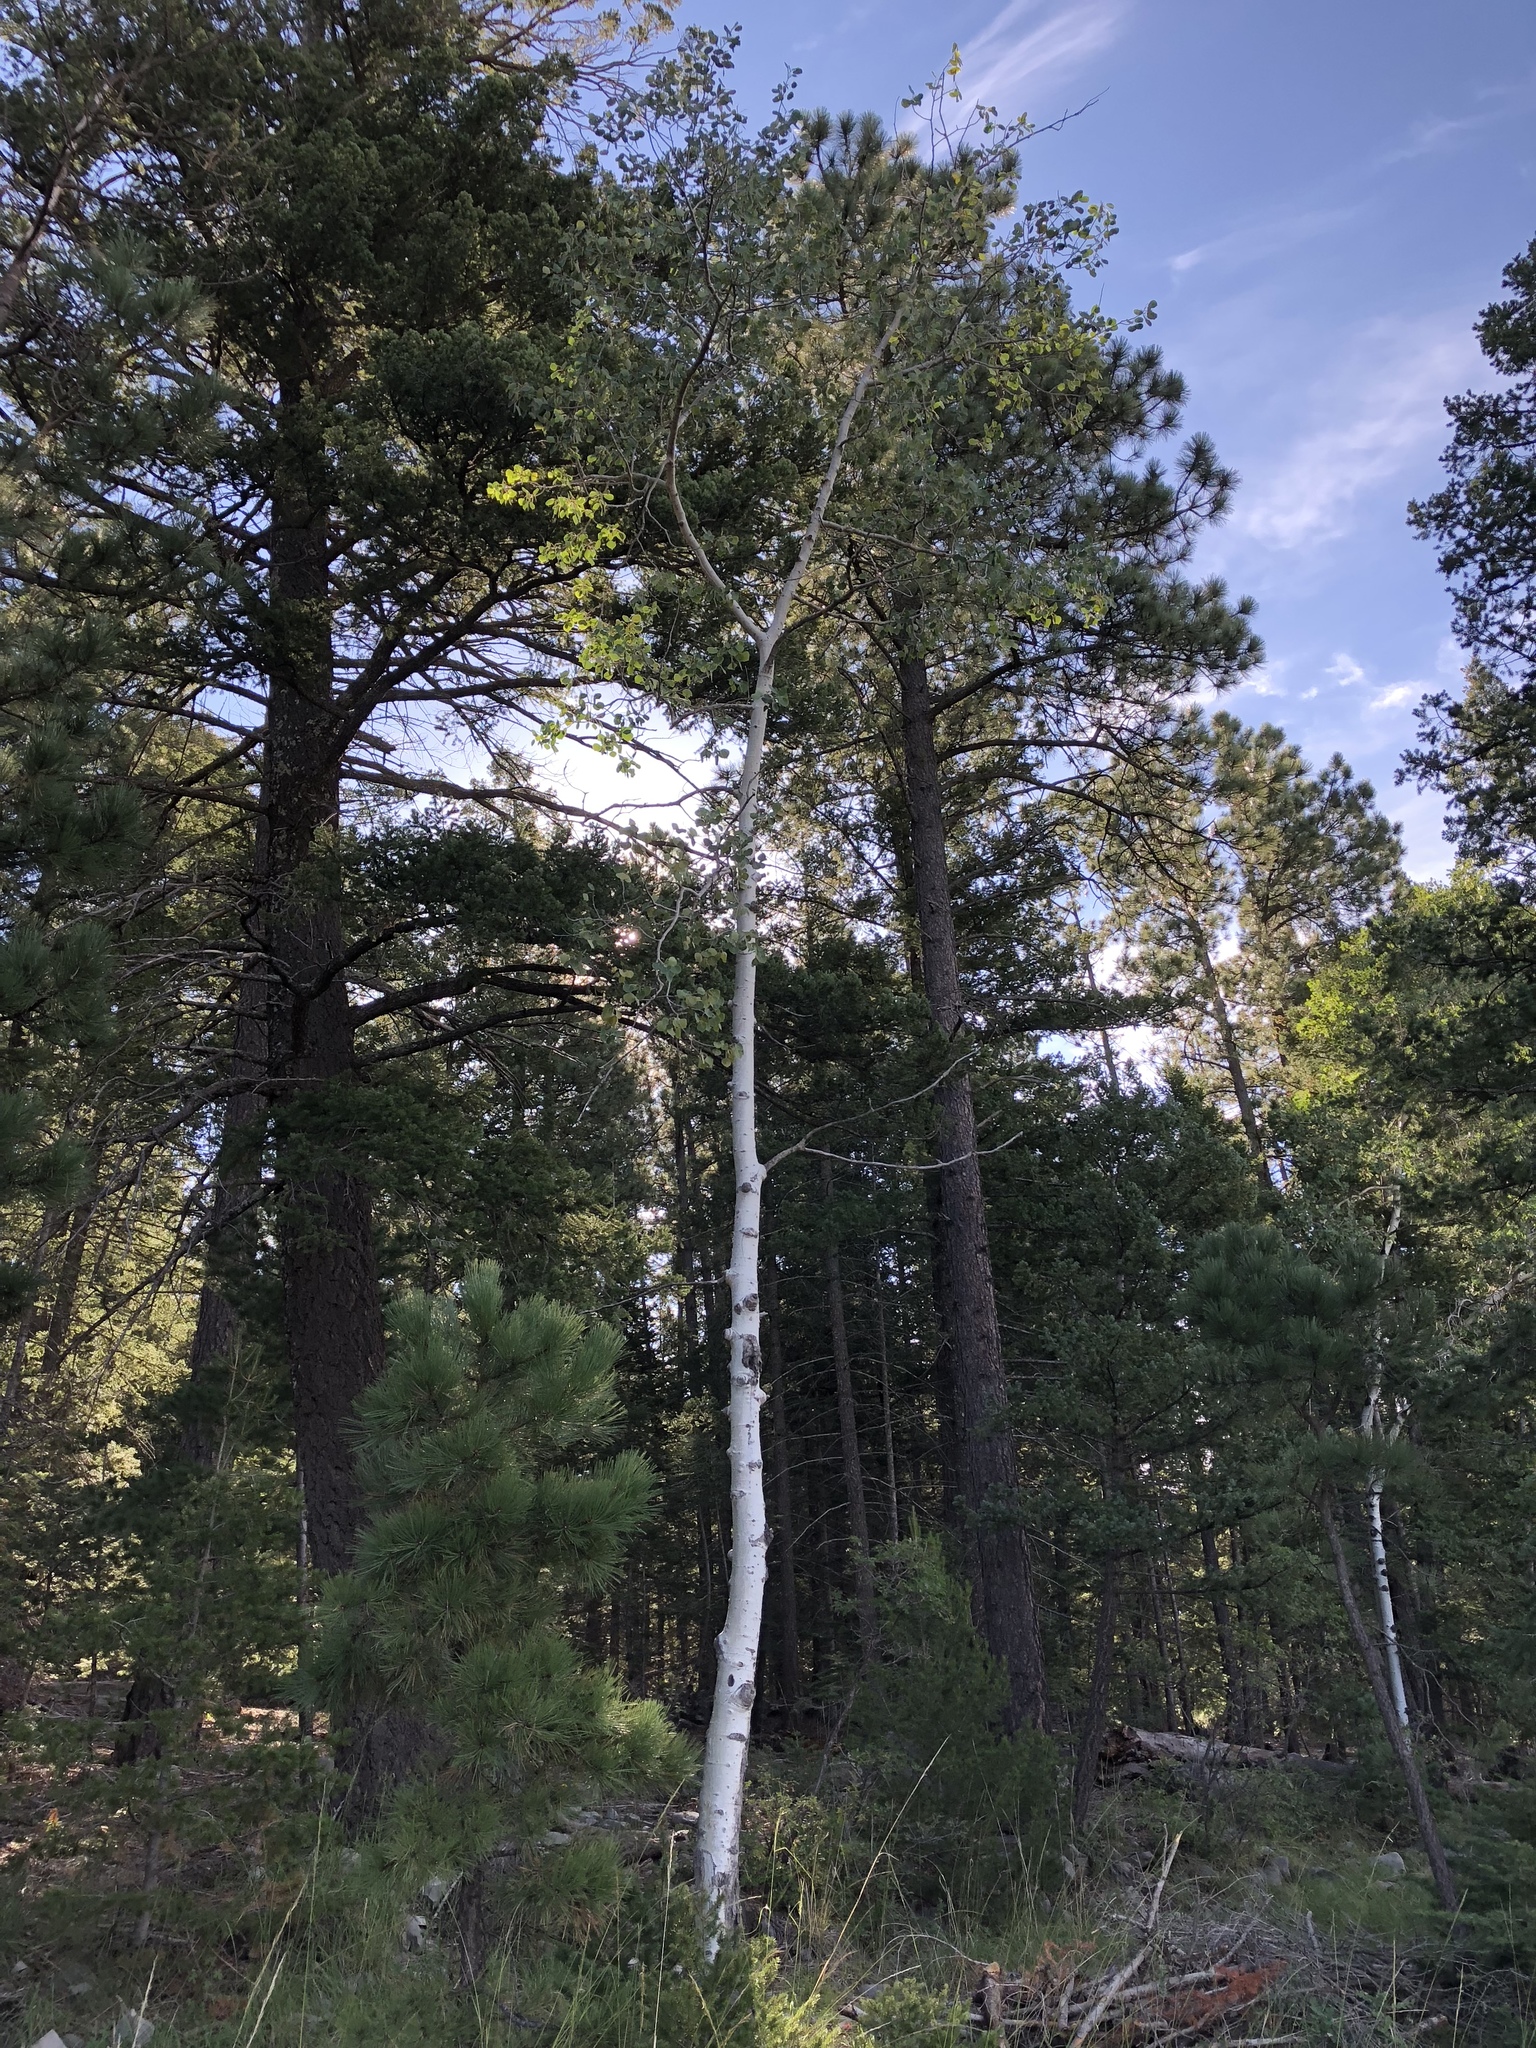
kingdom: Plantae
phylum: Tracheophyta
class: Magnoliopsida
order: Malpighiales
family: Salicaceae
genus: Populus
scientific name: Populus tremuloides
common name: Quaking aspen
